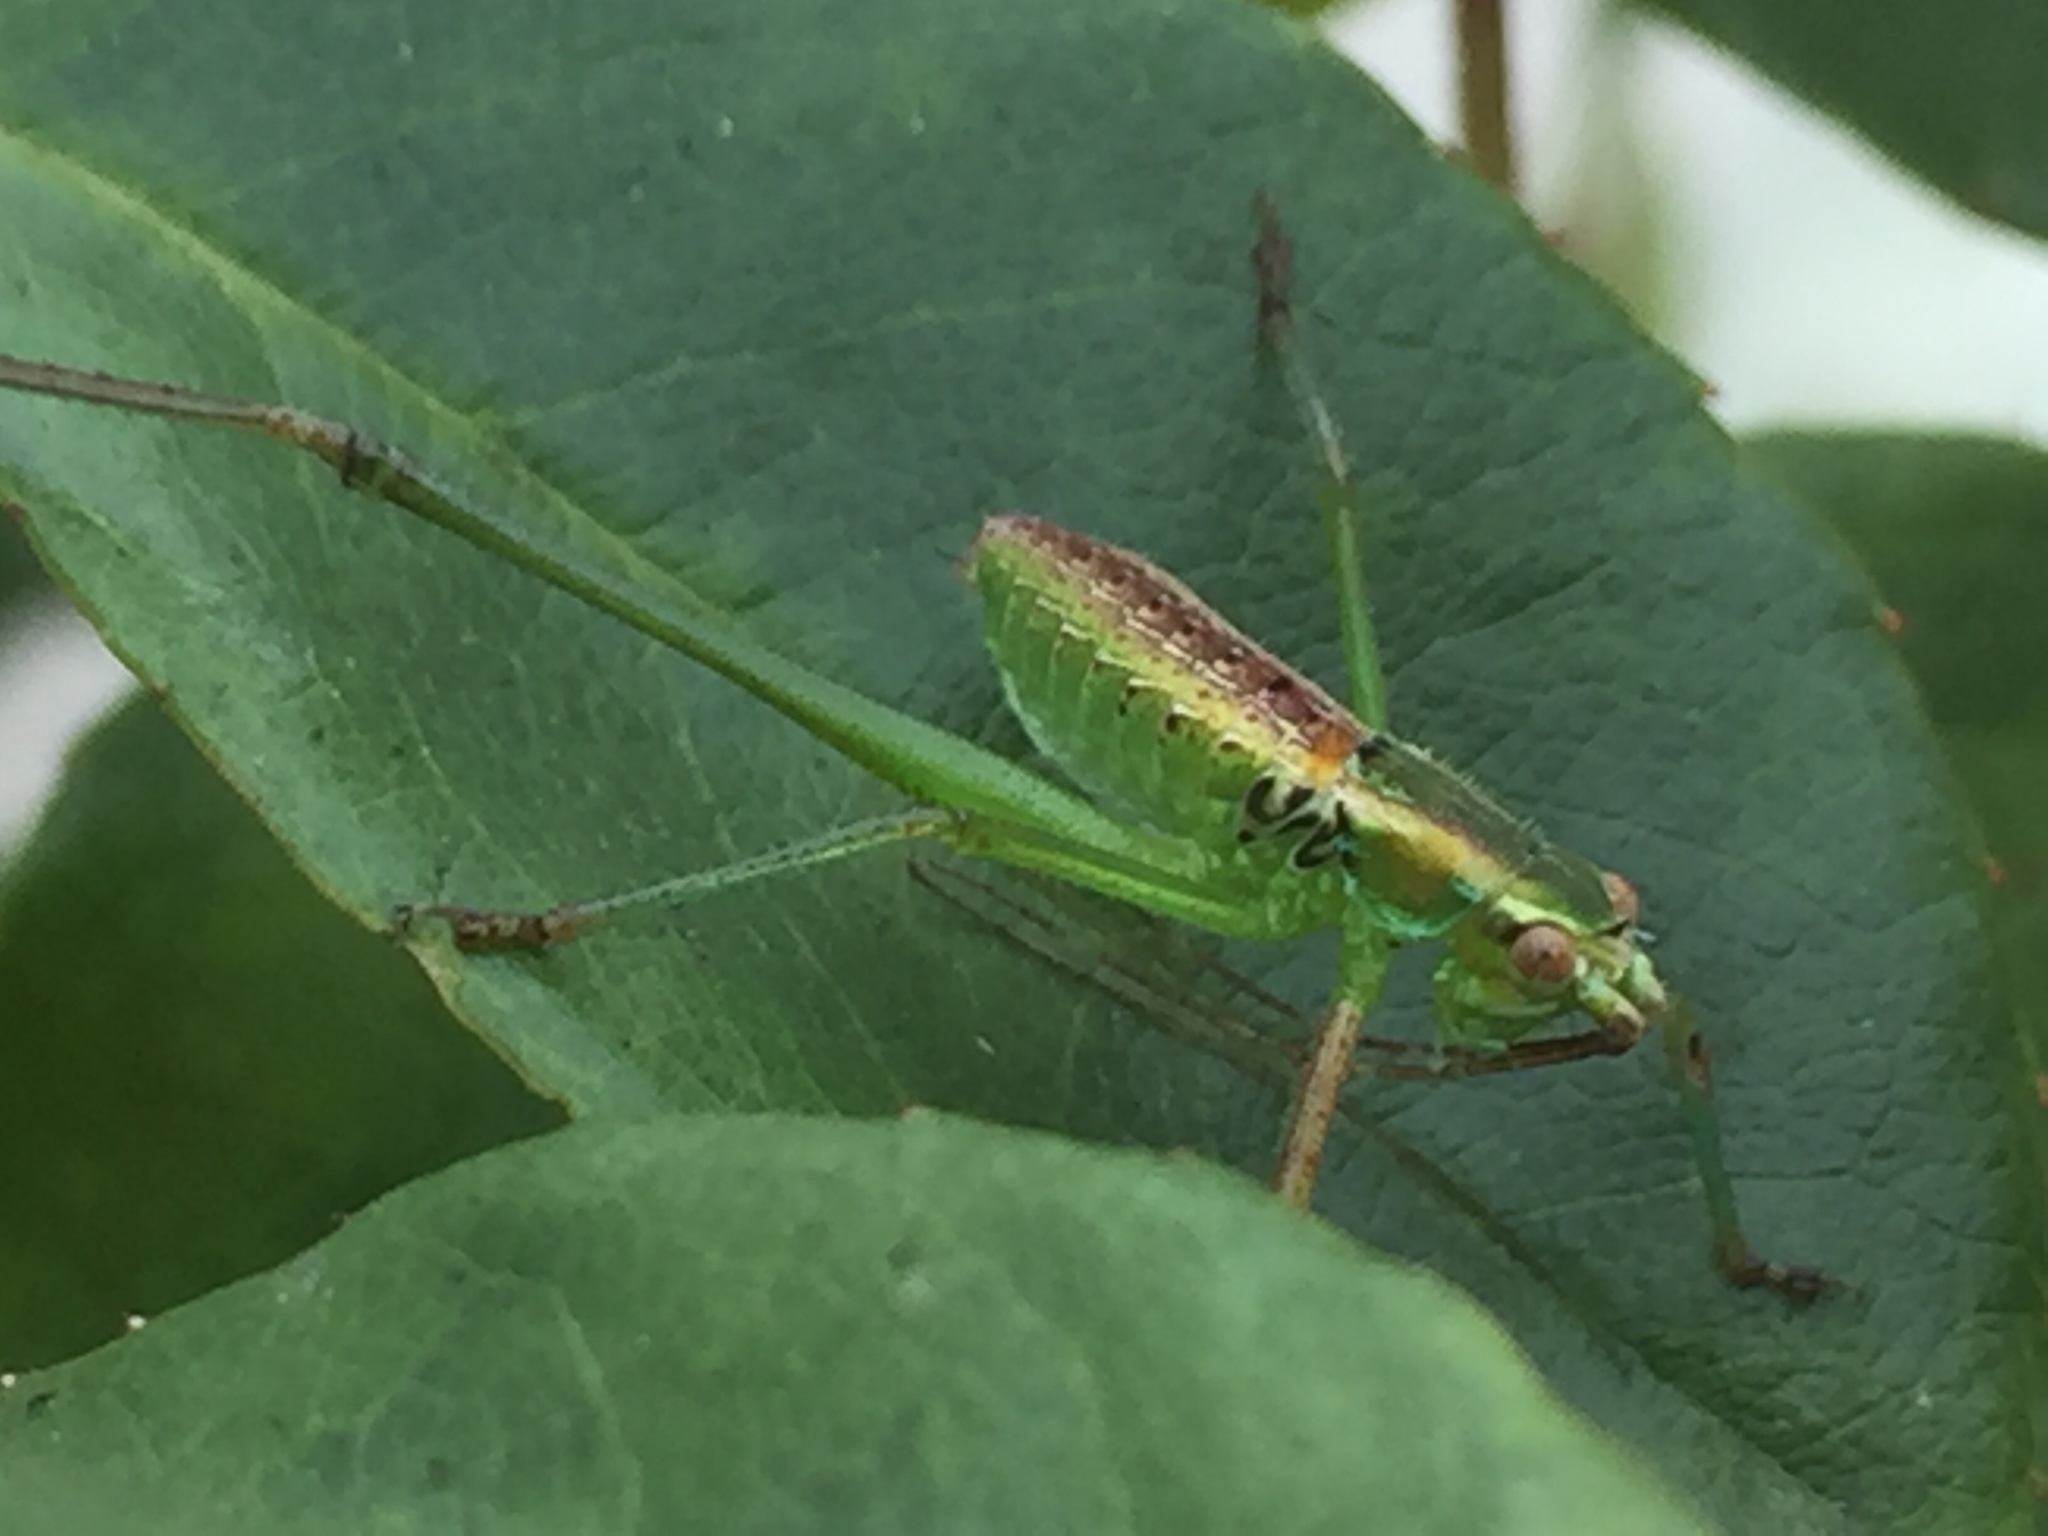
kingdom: Animalia
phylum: Arthropoda
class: Insecta
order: Orthoptera
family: Tettigoniidae
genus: Scudderia
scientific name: Scudderia
